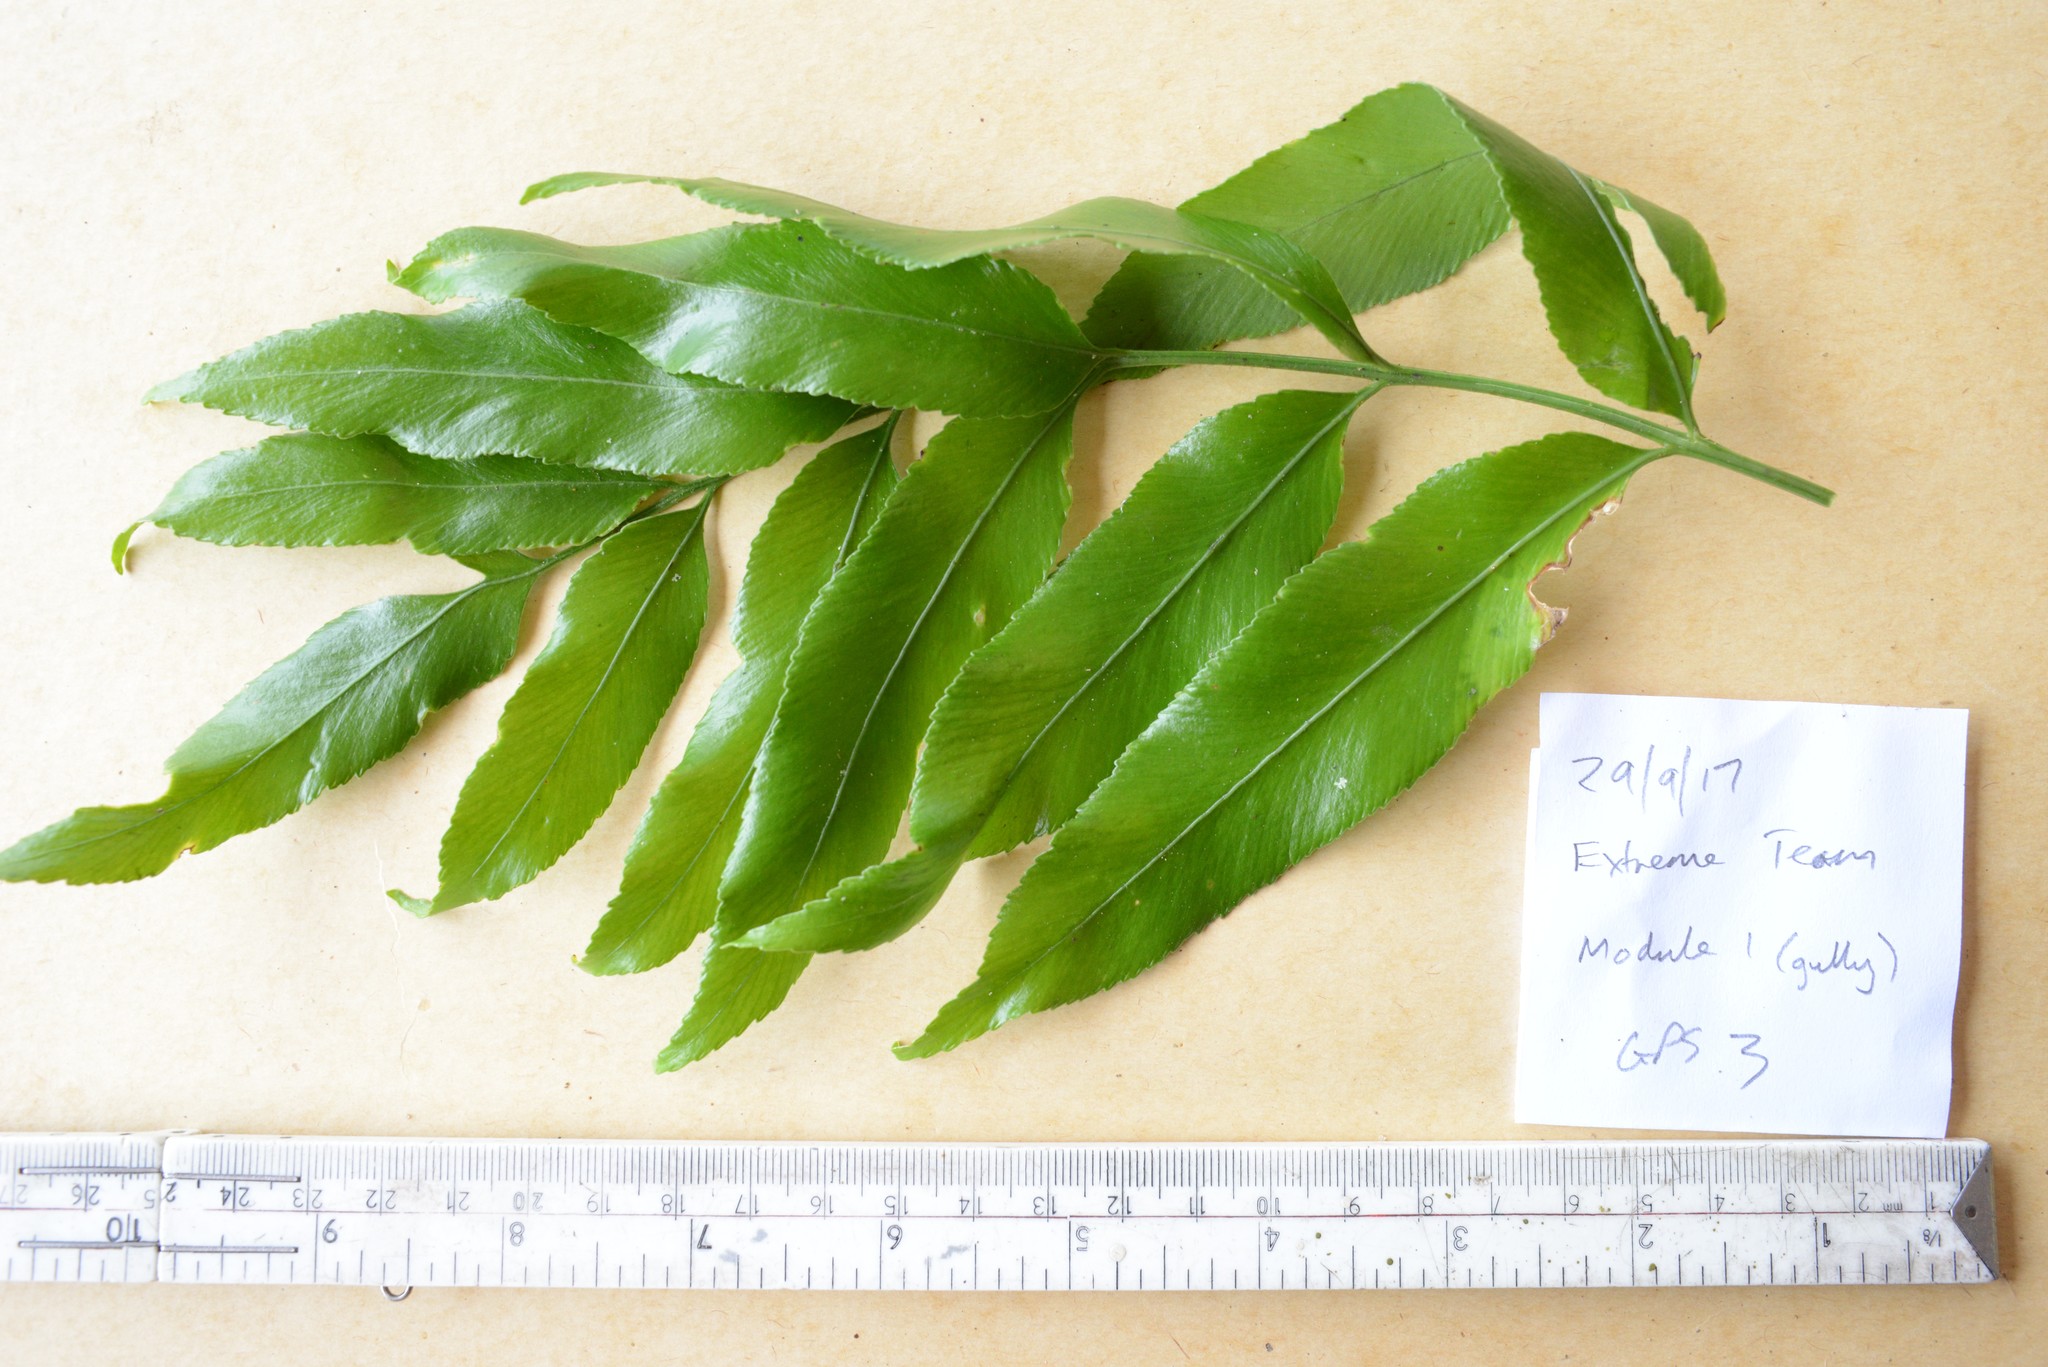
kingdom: Plantae
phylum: Tracheophyta
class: Polypodiopsida
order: Polypodiales
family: Aspleniaceae
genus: Asplenium
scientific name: Asplenium oblongifolium
